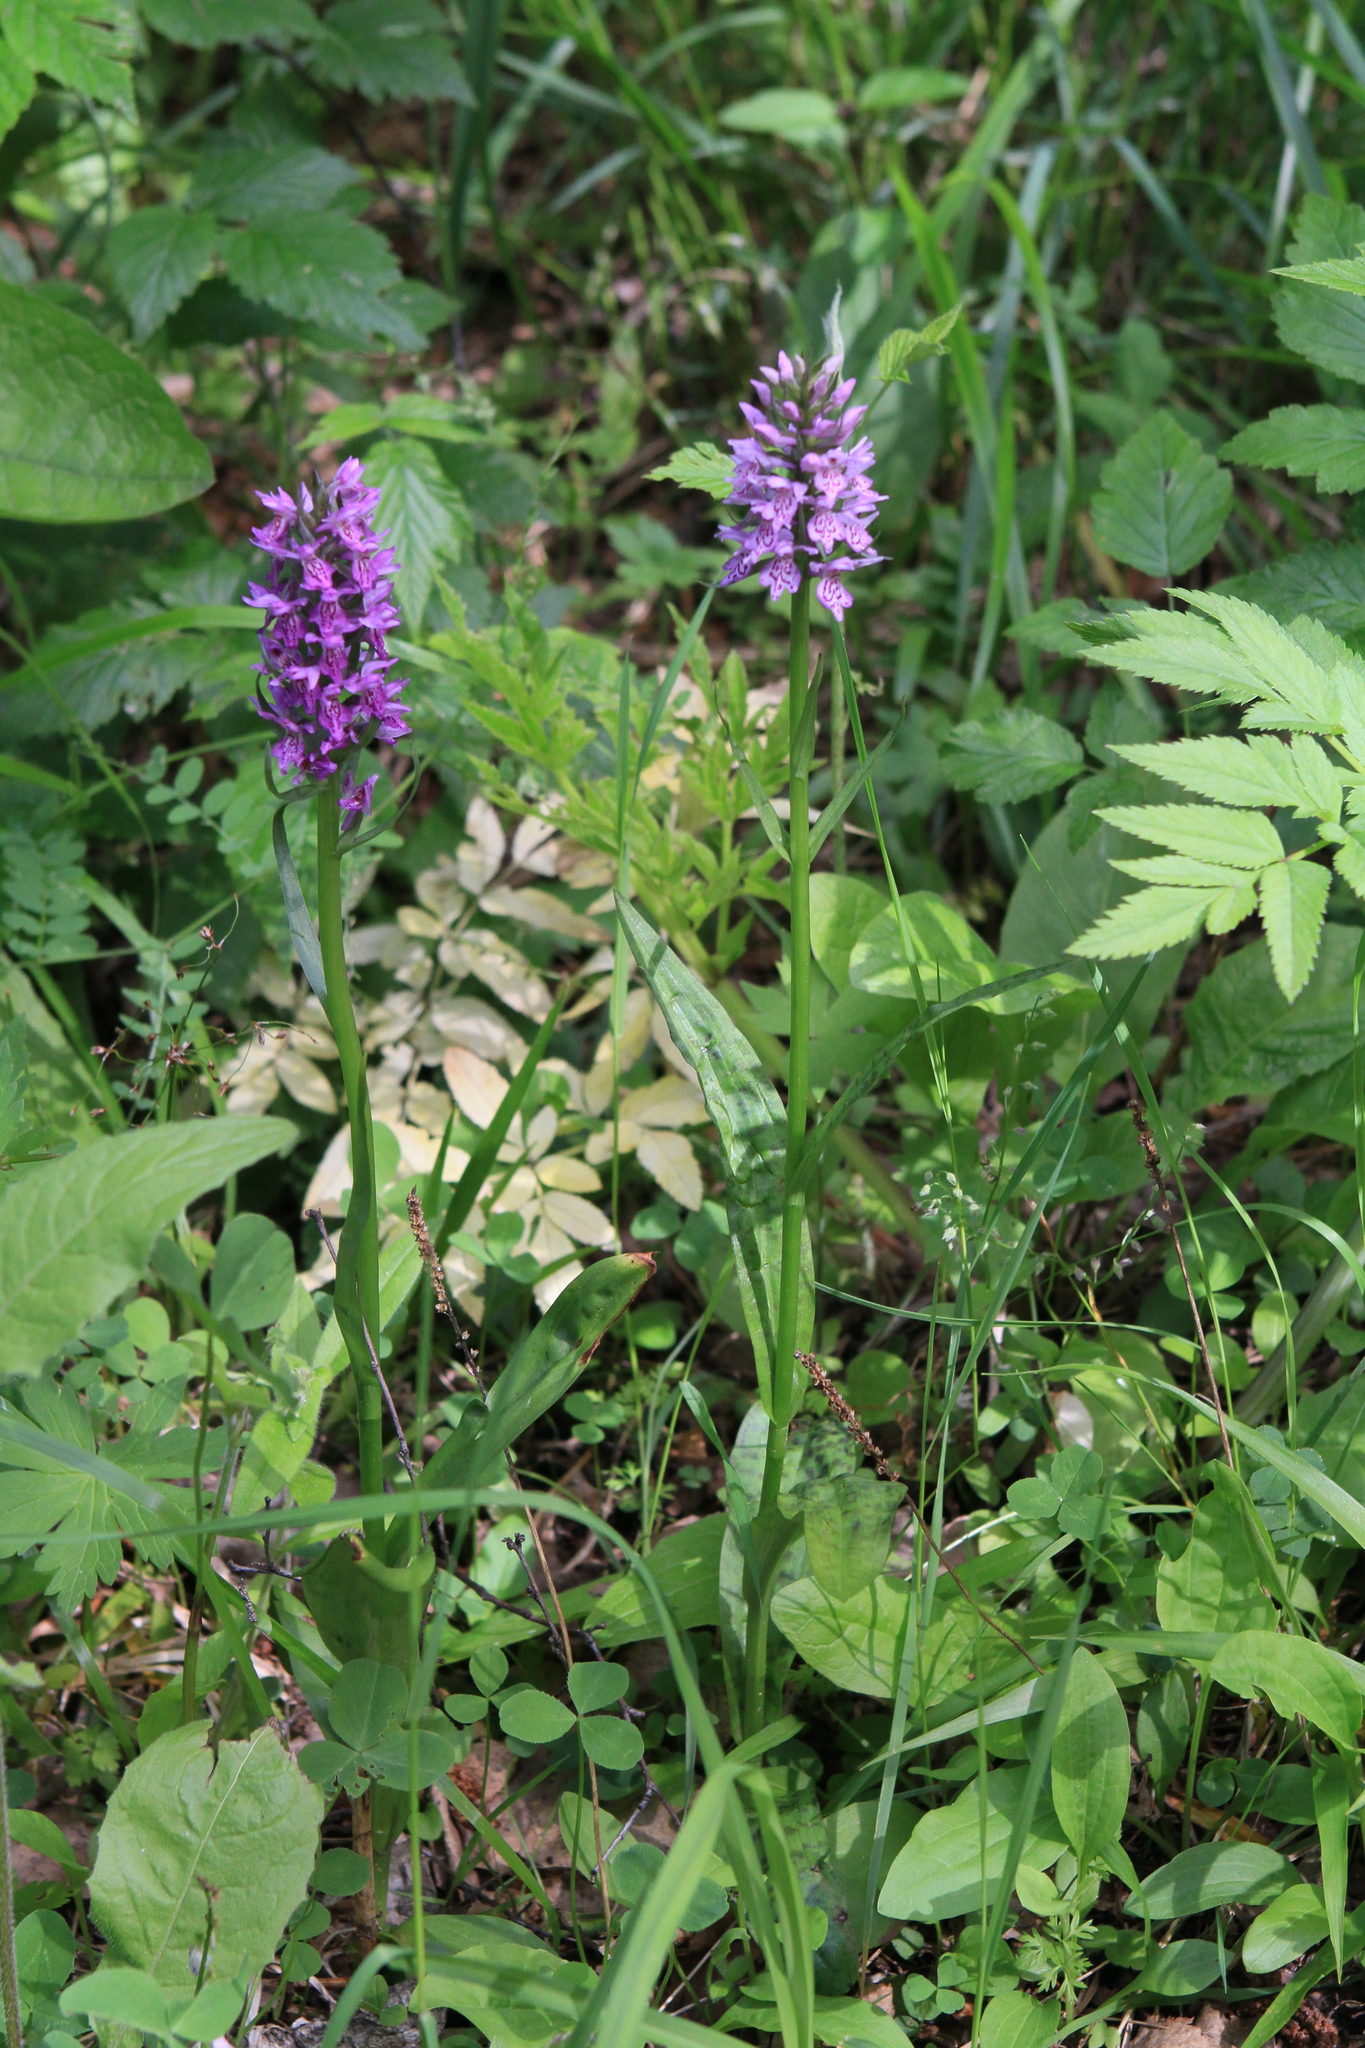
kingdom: Plantae
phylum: Tracheophyta
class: Liliopsida
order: Asparagales
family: Orchidaceae
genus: Dactylorhiza
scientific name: Dactylorhiza sibirica
